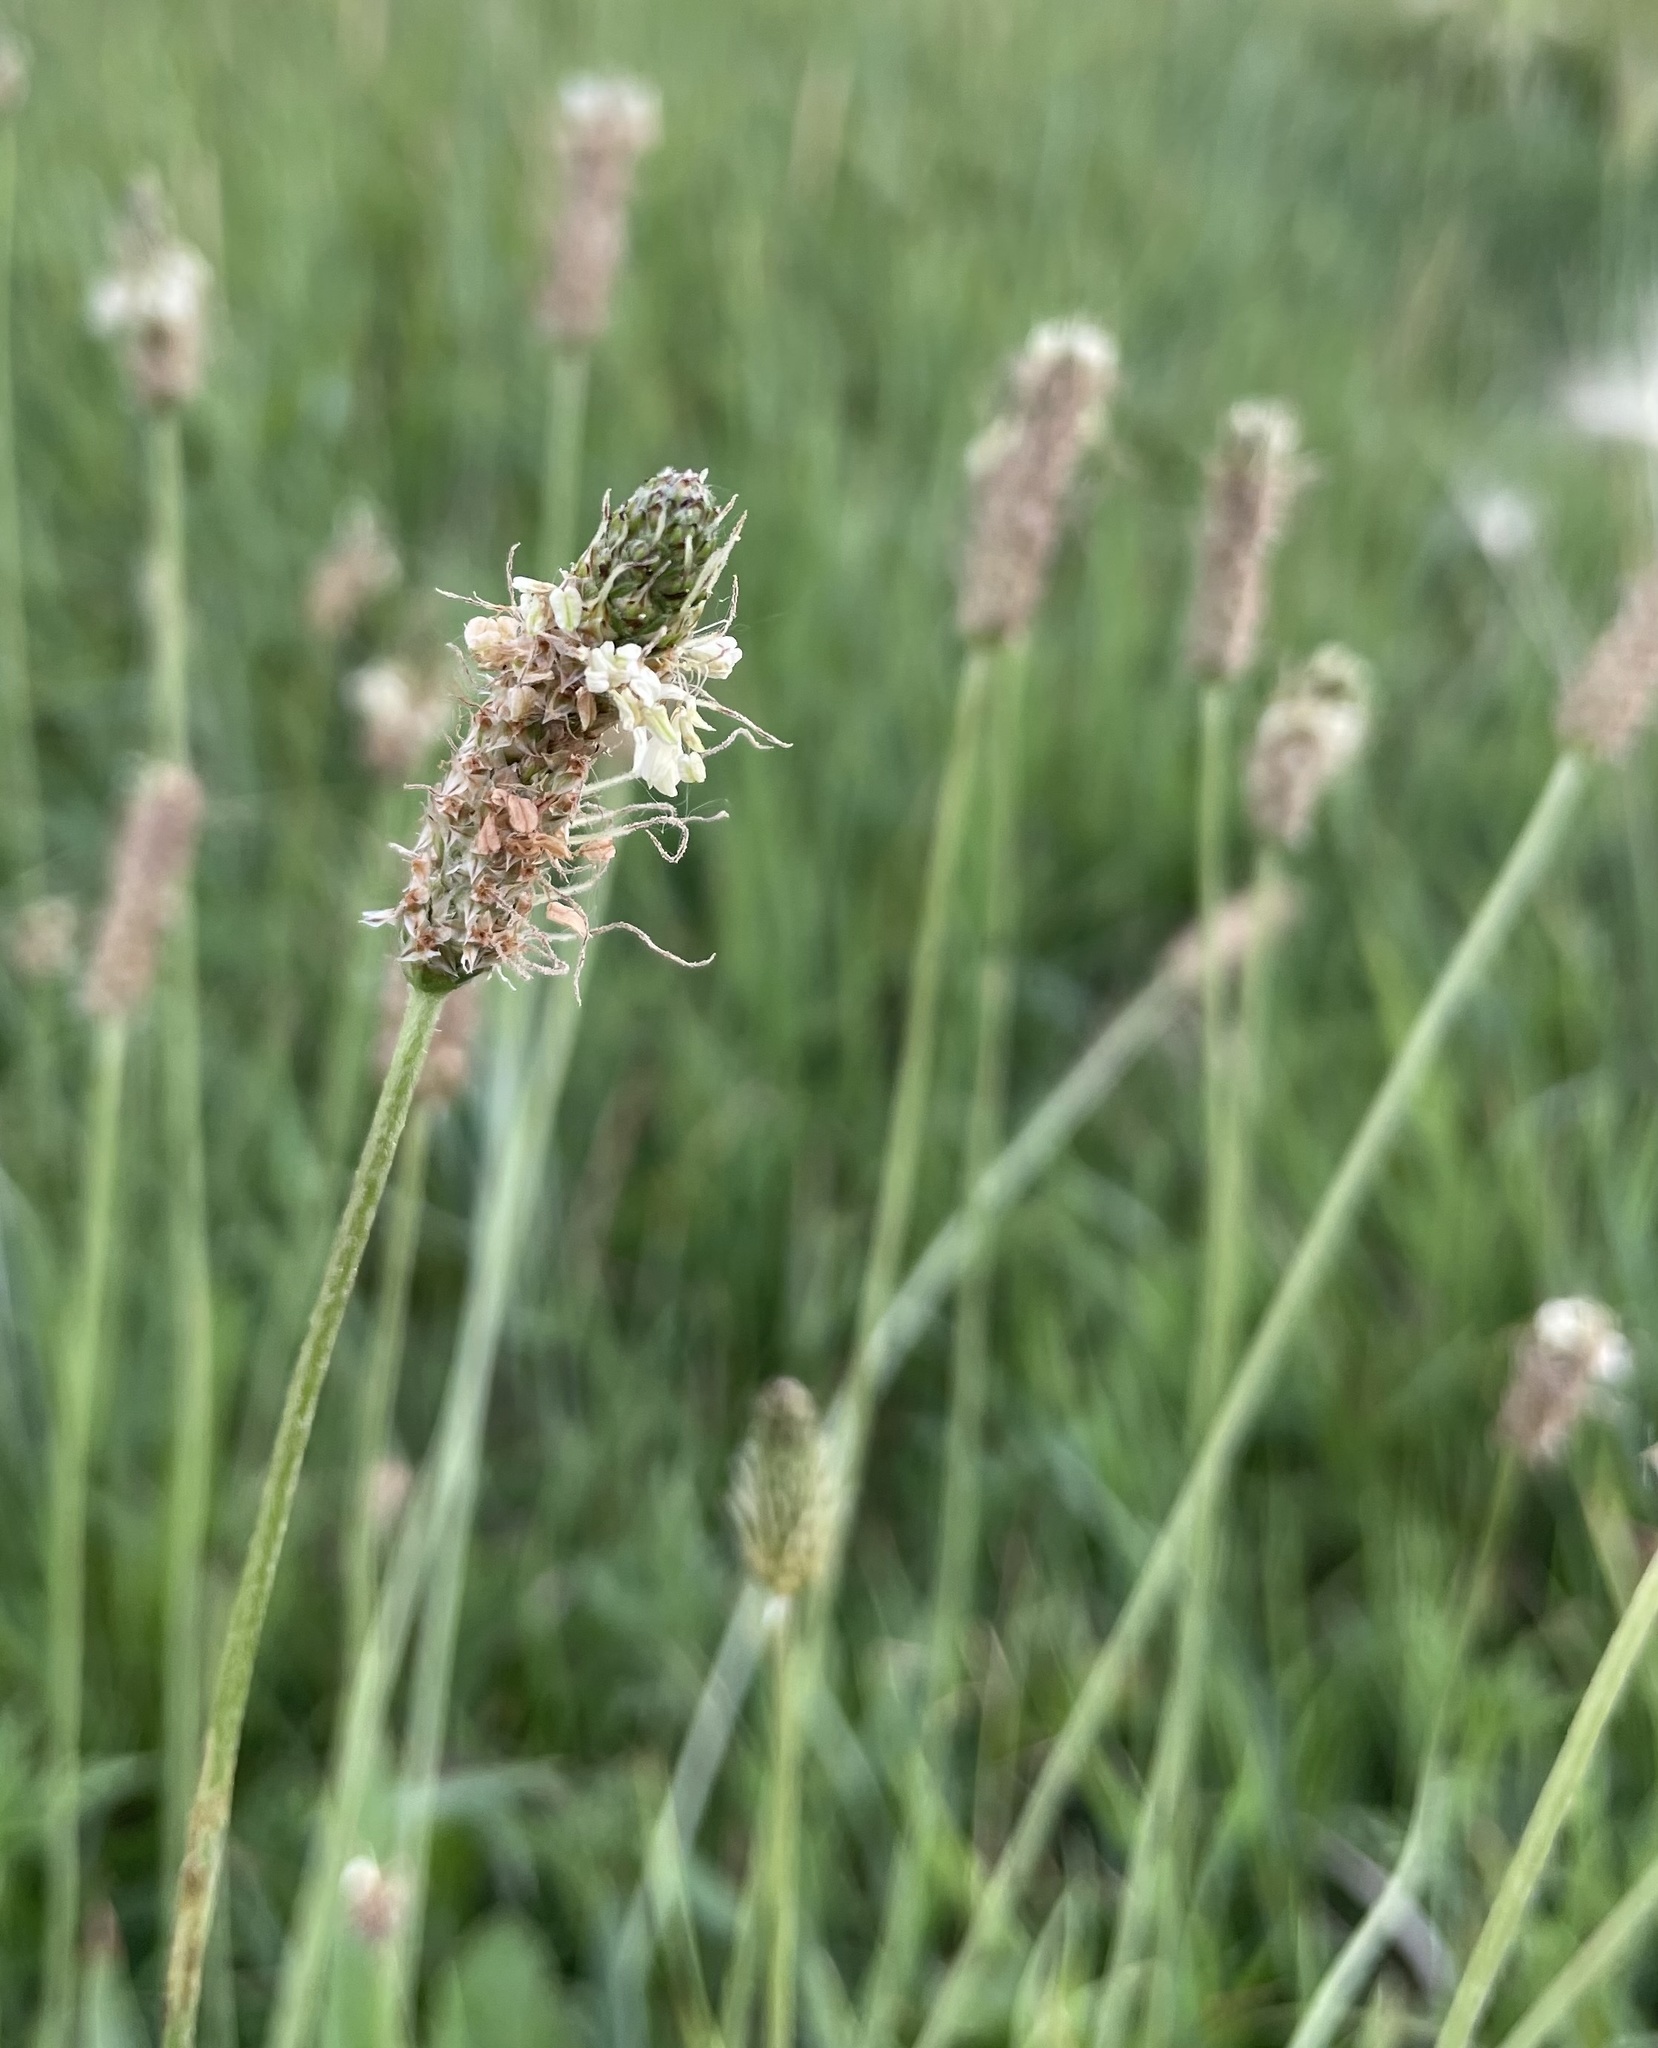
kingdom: Plantae
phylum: Tracheophyta
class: Magnoliopsida
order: Lamiales
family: Plantaginaceae
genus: Plantago
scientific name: Plantago lanceolata
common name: Ribwort plantain
